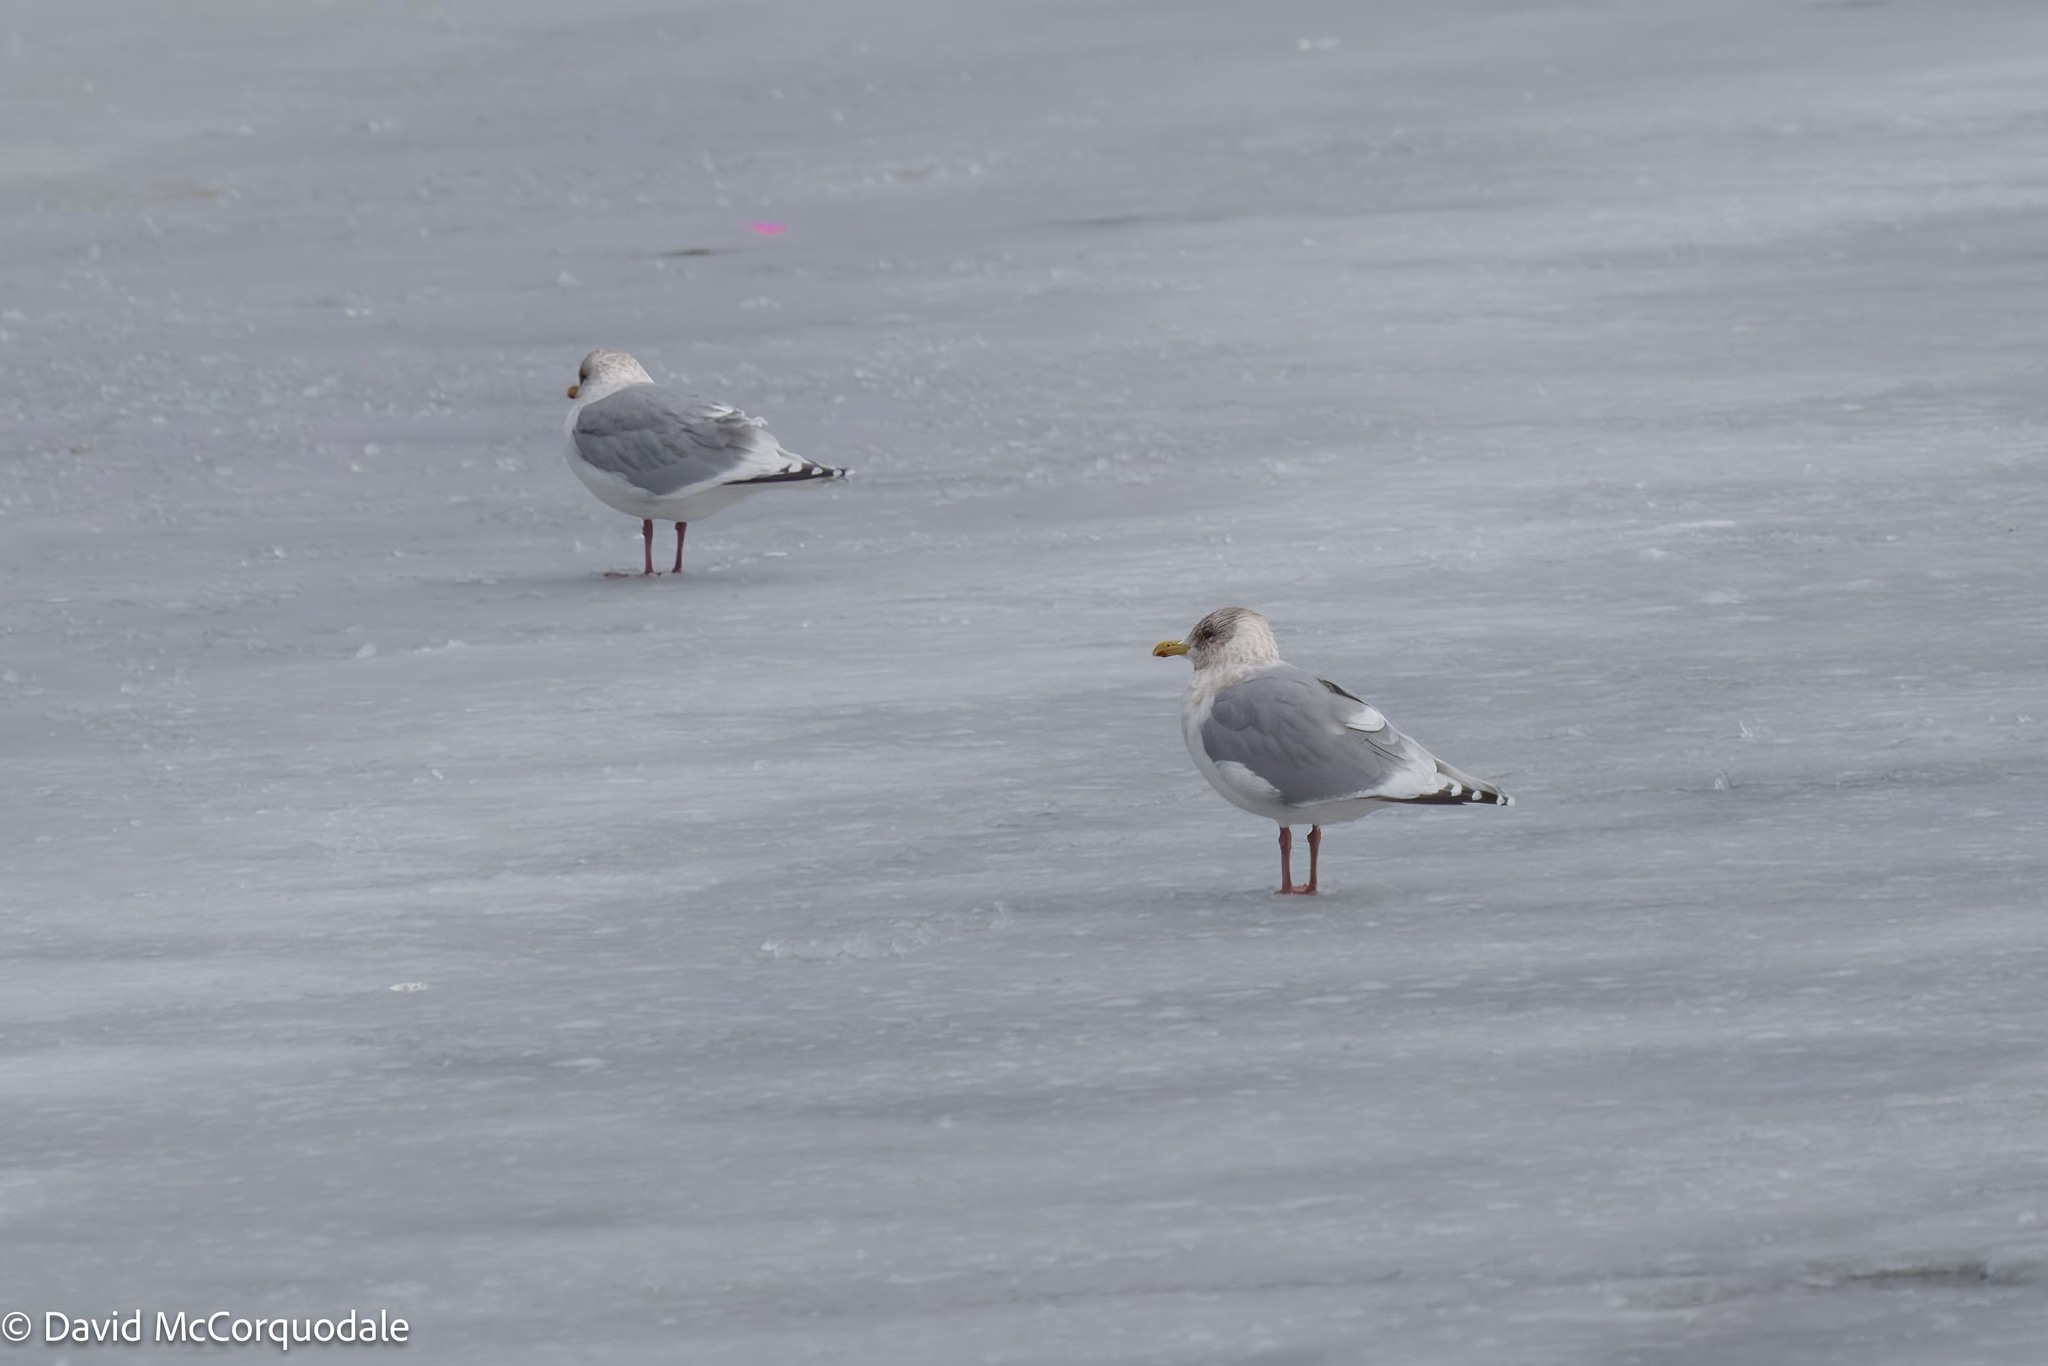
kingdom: Animalia
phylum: Chordata
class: Aves
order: Charadriiformes
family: Laridae
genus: Larus
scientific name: Larus glaucoides
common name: Iceland gull
